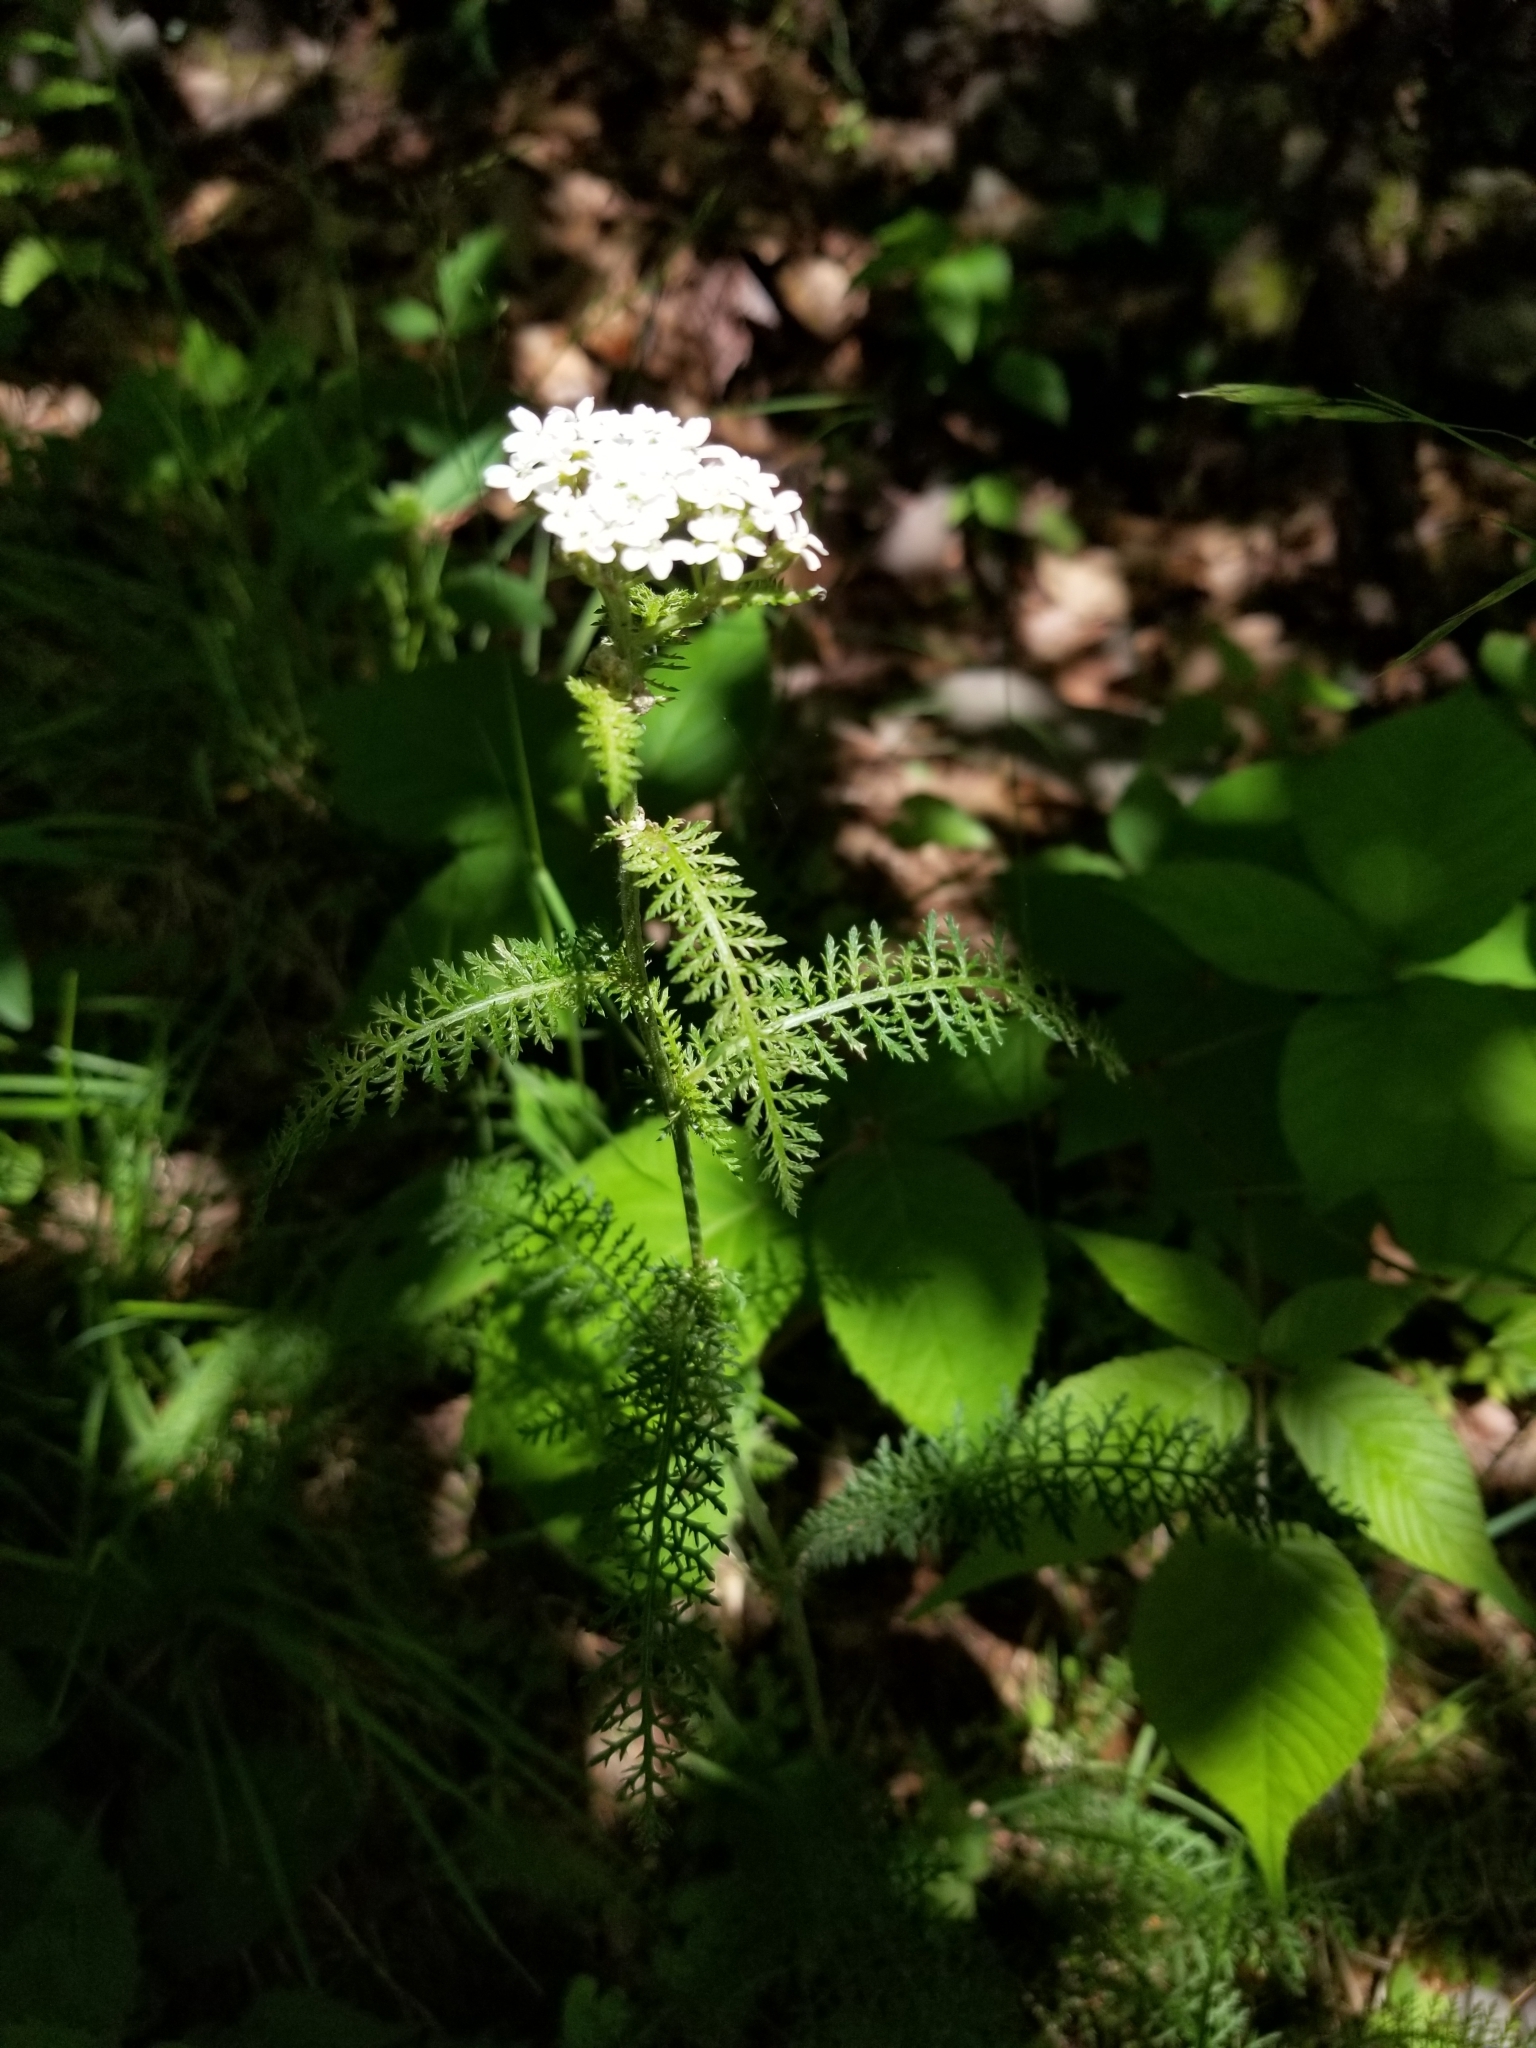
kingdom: Plantae
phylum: Tracheophyta
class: Magnoliopsida
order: Asterales
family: Asteraceae
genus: Achillea
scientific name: Achillea millefolium
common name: Yarrow
